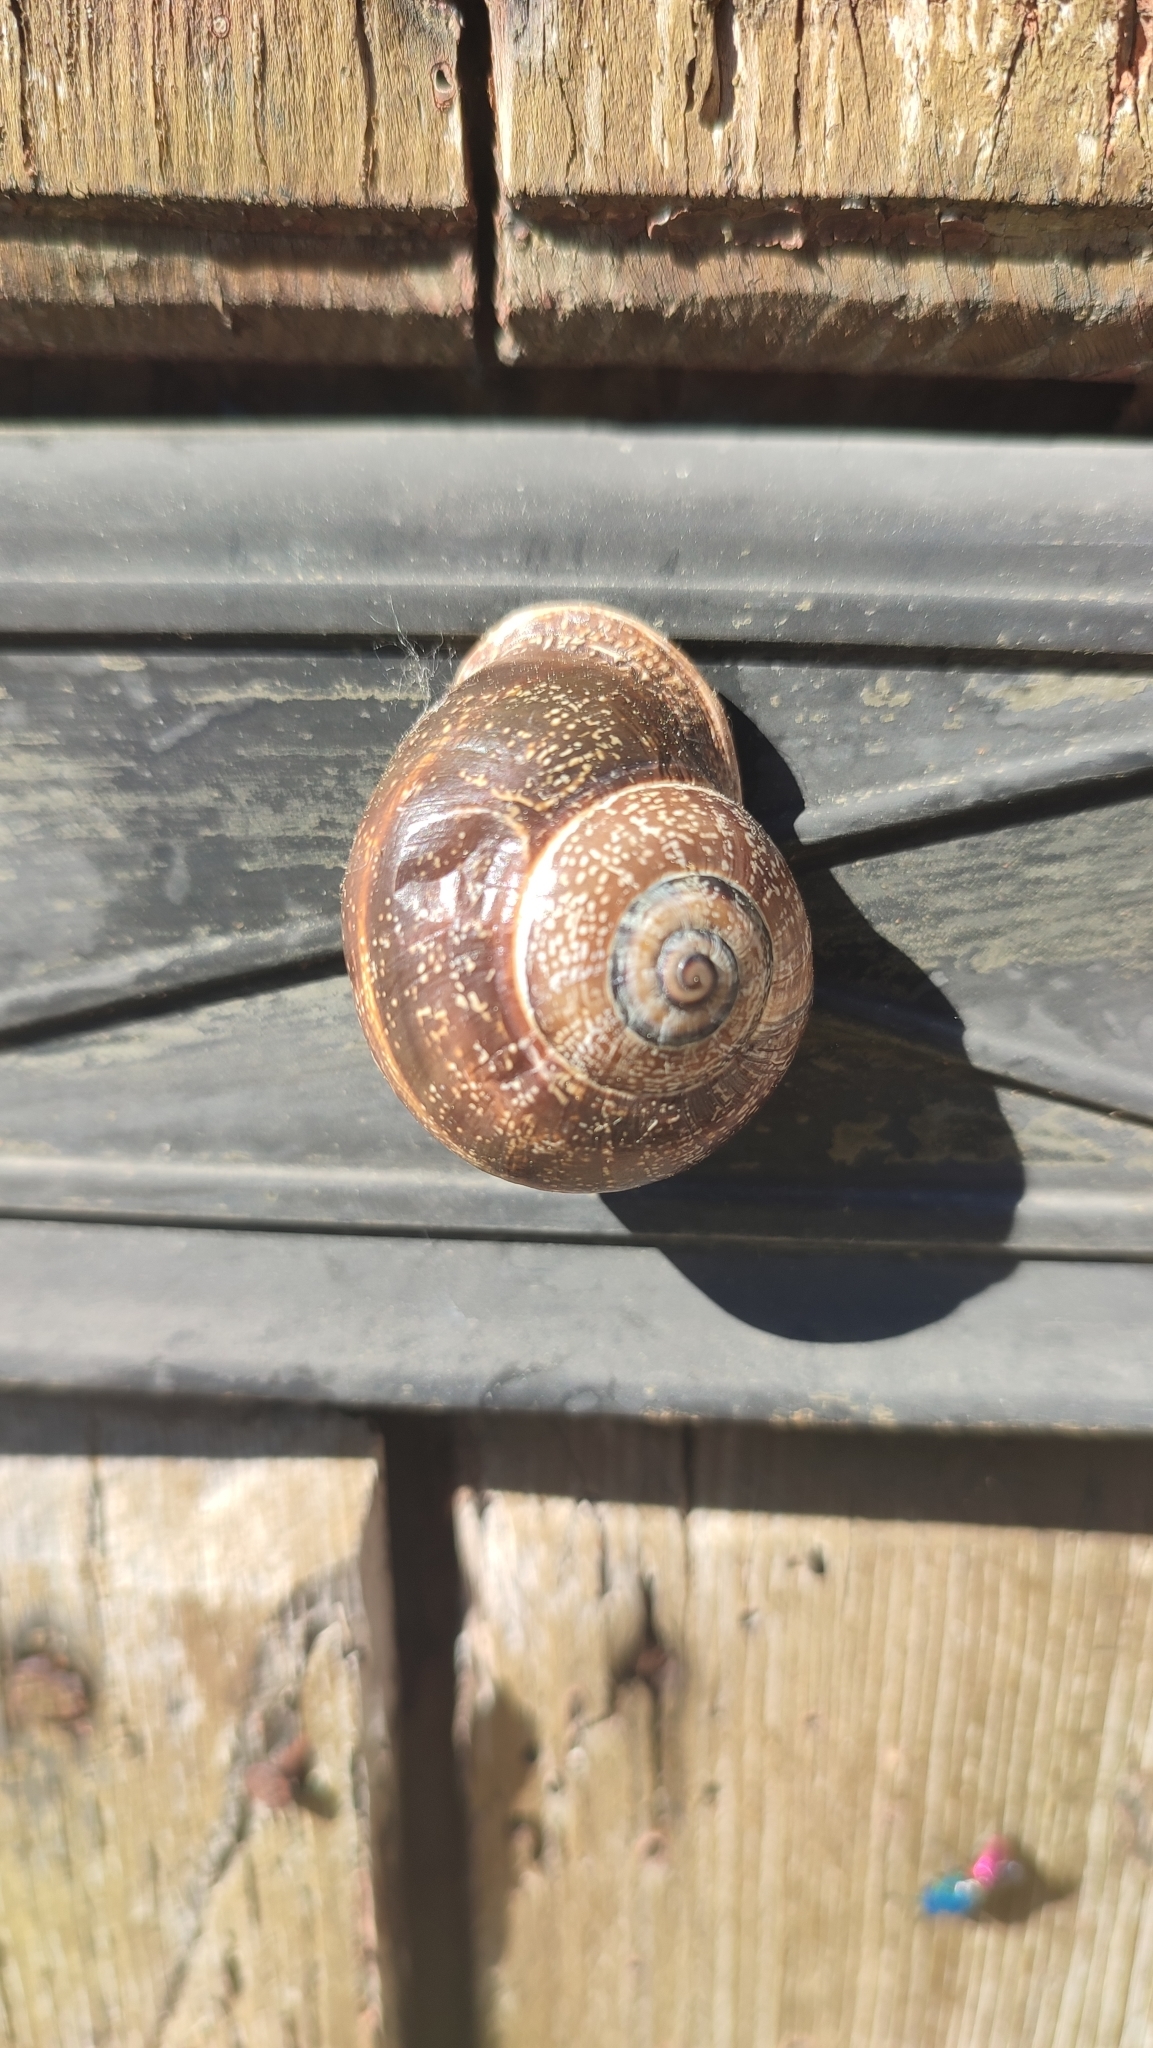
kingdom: Animalia
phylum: Mollusca
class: Gastropoda
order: Stylommatophora
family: Helicidae
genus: Otala
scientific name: Otala punctata
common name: Milk snail
